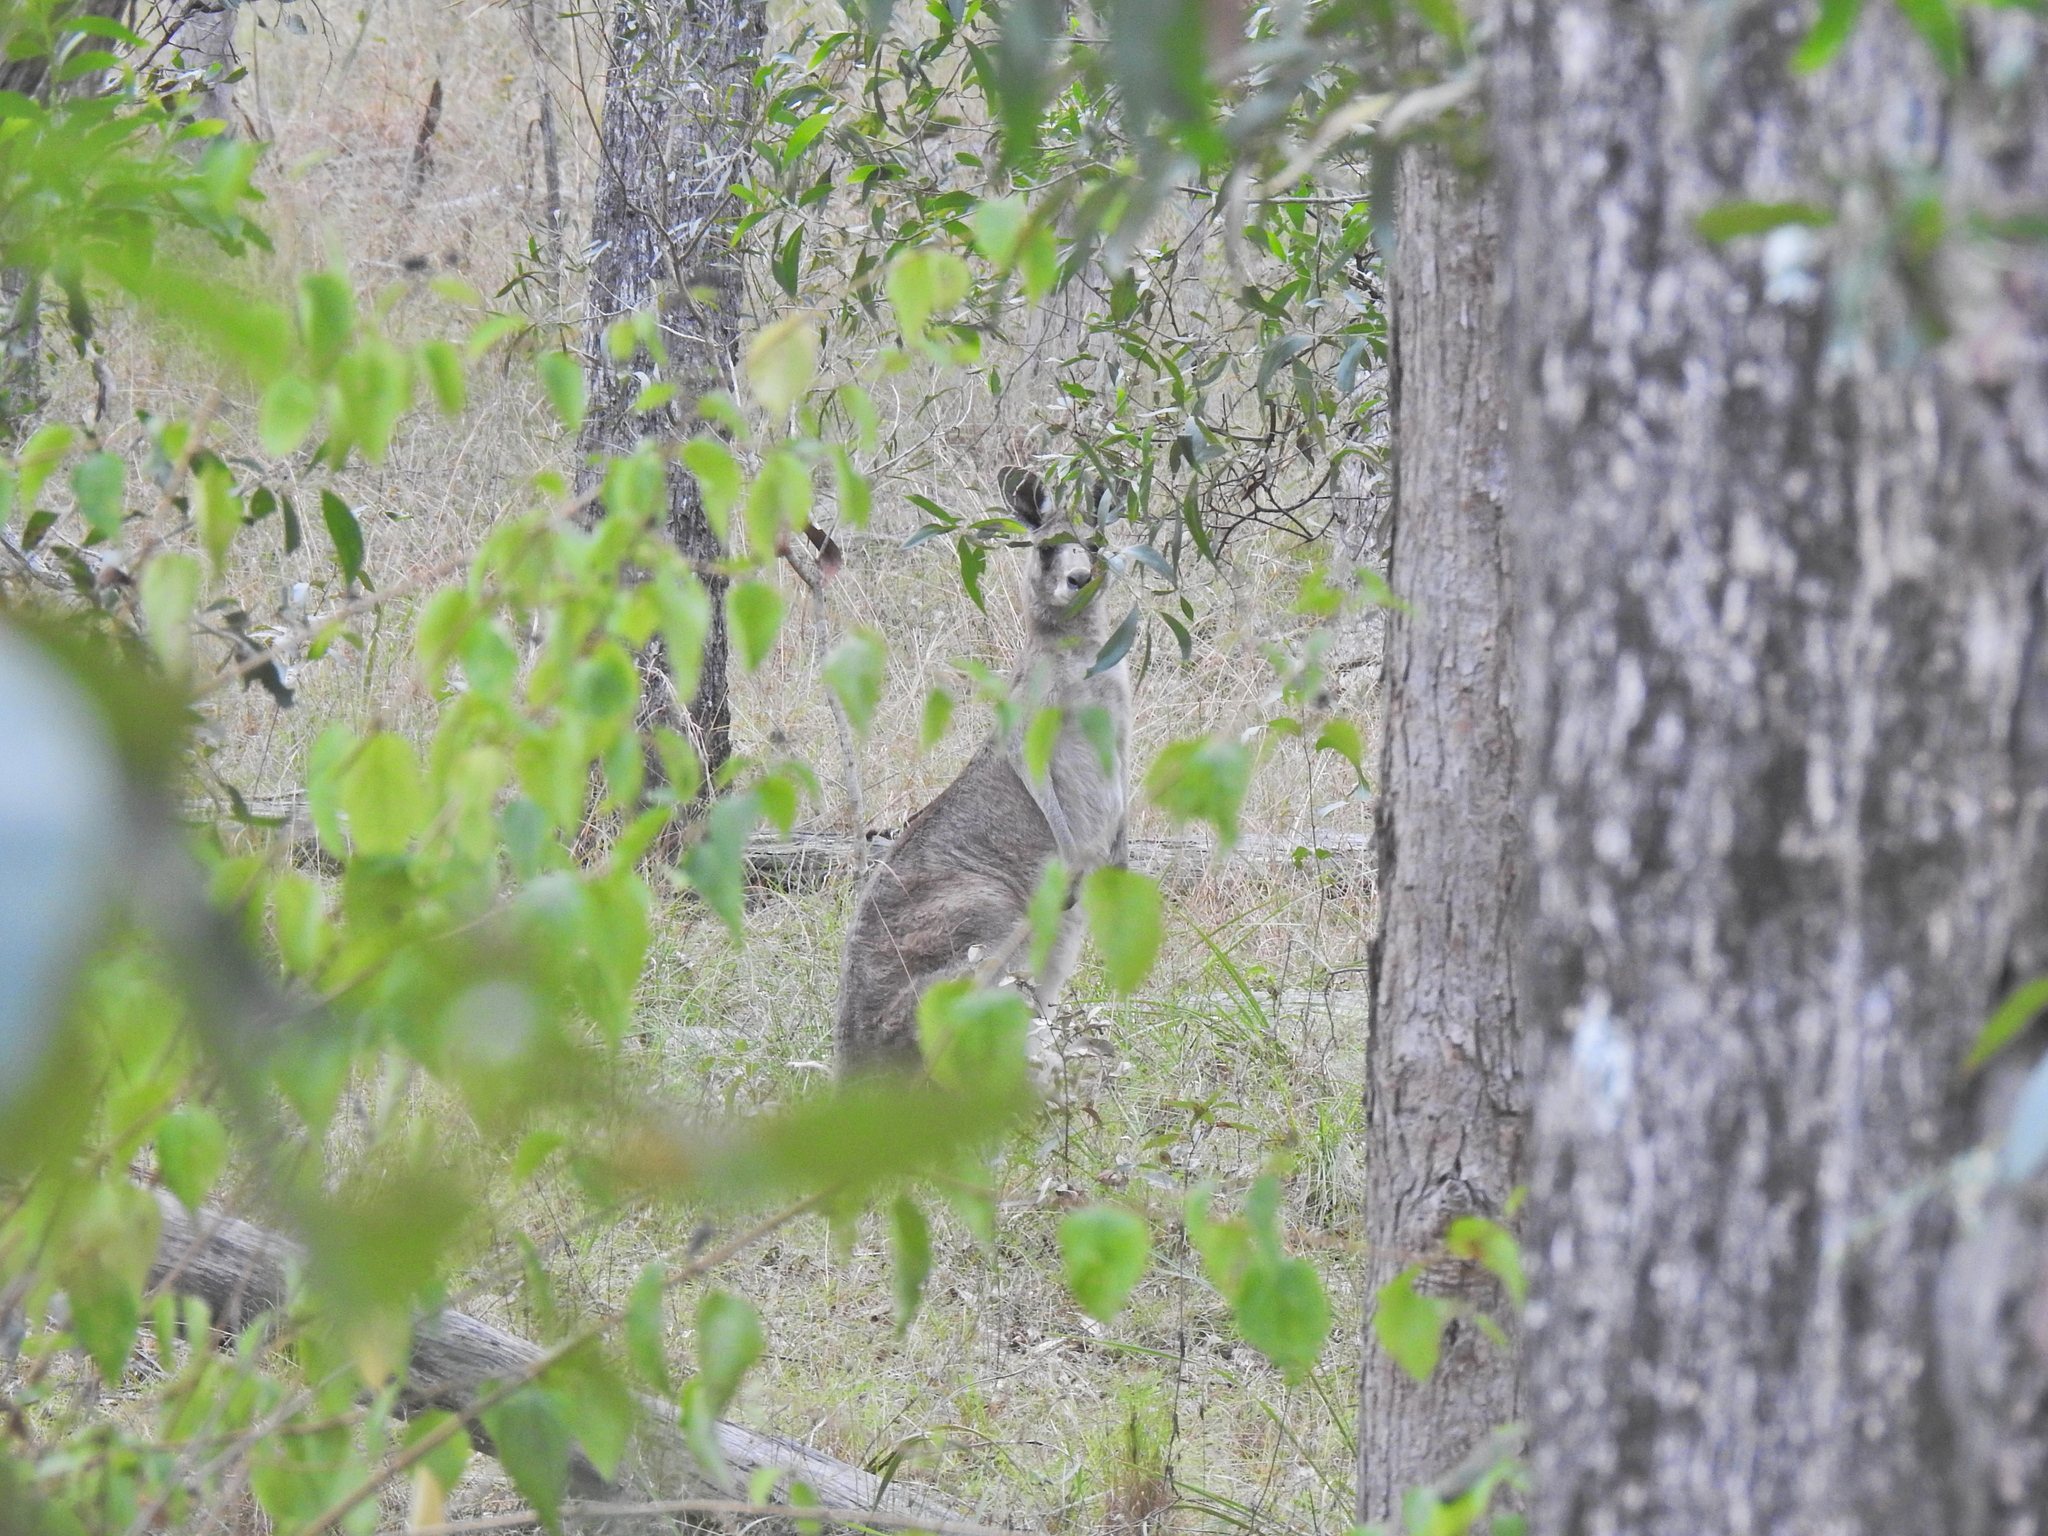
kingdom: Animalia
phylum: Chordata
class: Mammalia
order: Diprotodontia
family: Macropodidae
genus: Macropus
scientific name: Macropus giganteus
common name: Eastern grey kangaroo
